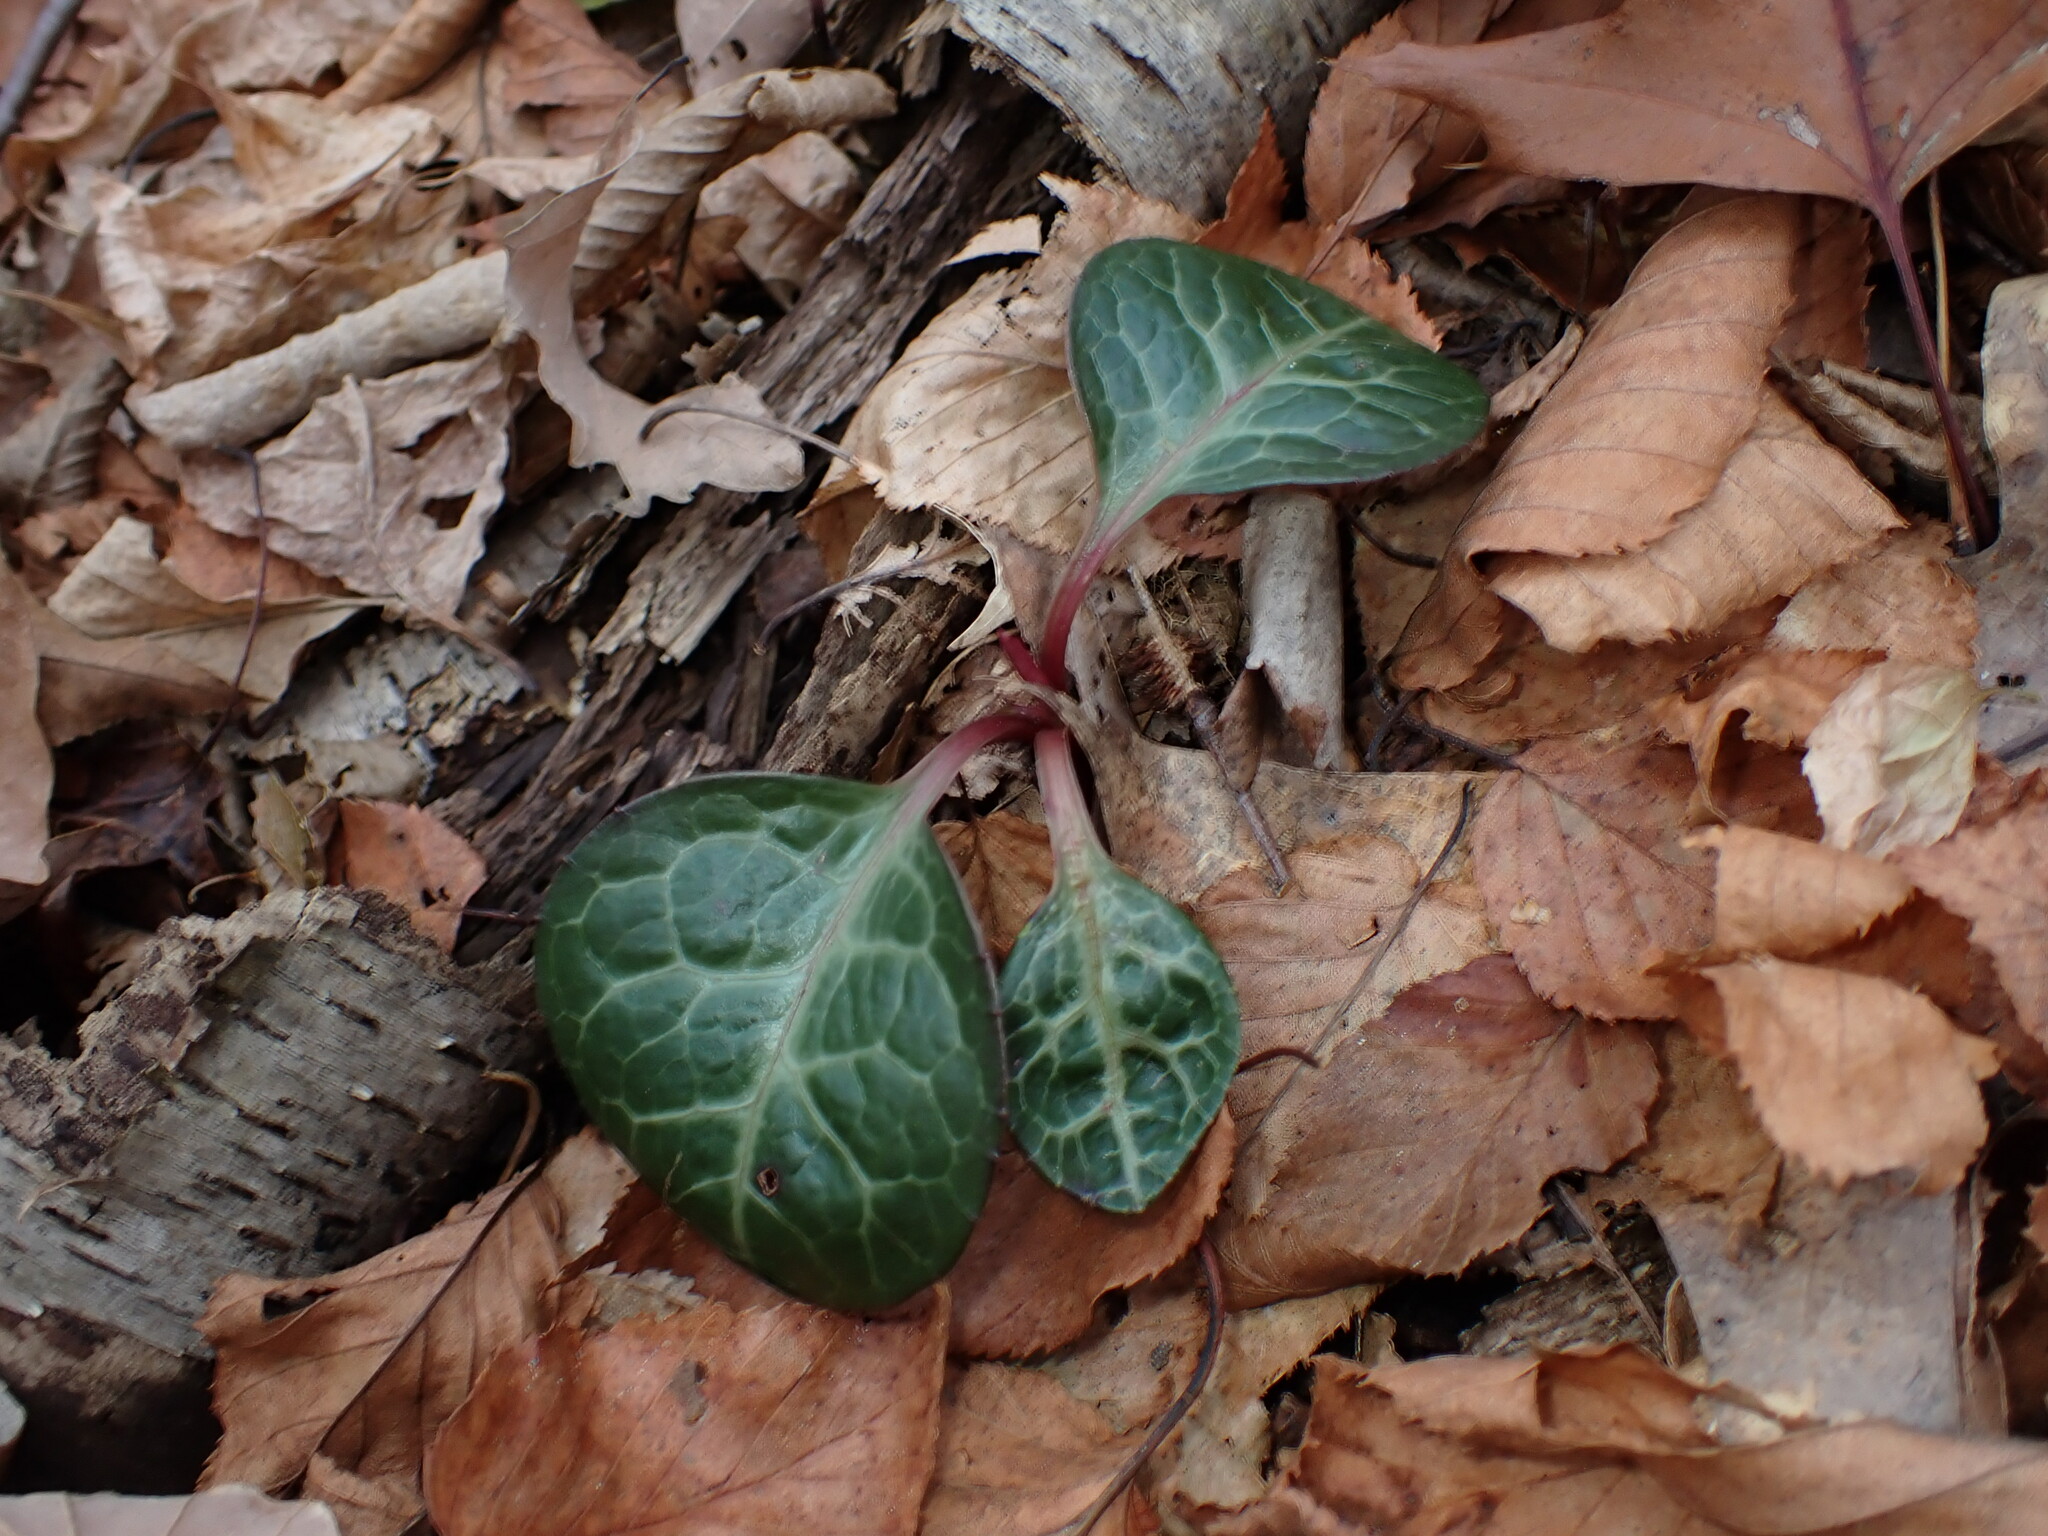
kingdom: Plantae
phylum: Tracheophyta
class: Magnoliopsida
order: Ericales
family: Ericaceae
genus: Pyrola
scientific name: Pyrola americana
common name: American wintergreen
